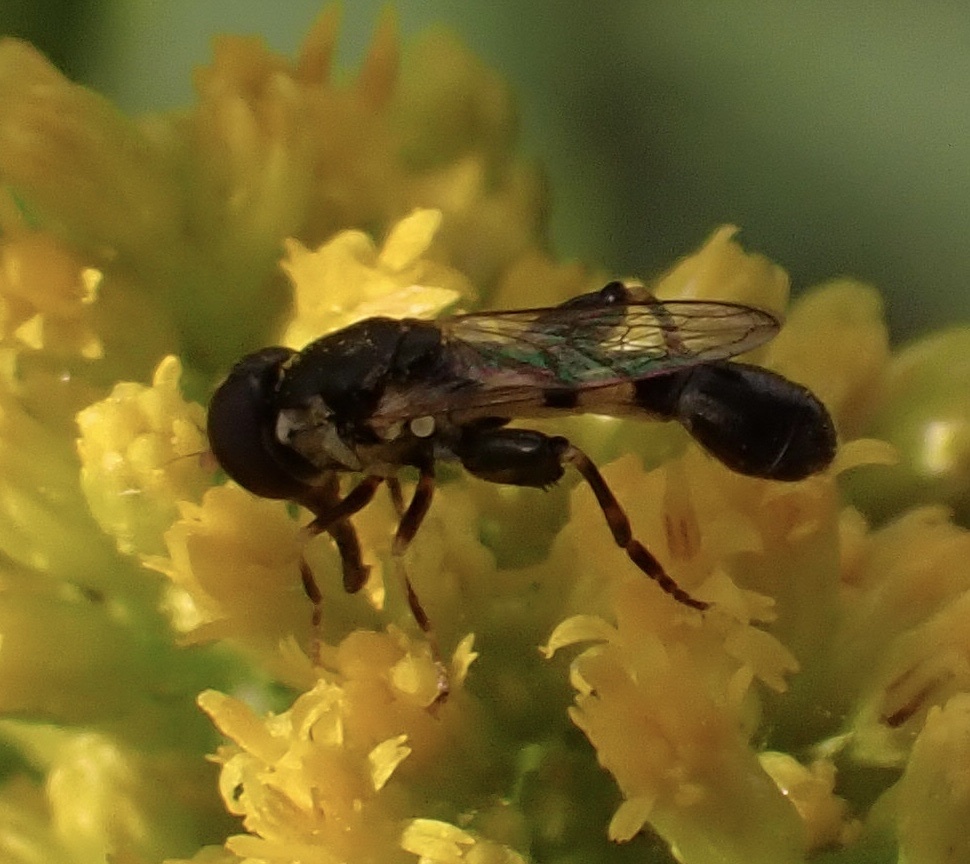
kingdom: Animalia
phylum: Arthropoda
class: Insecta
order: Diptera
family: Syrphidae
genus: Syritta
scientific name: Syritta pipiens
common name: Hover fly
